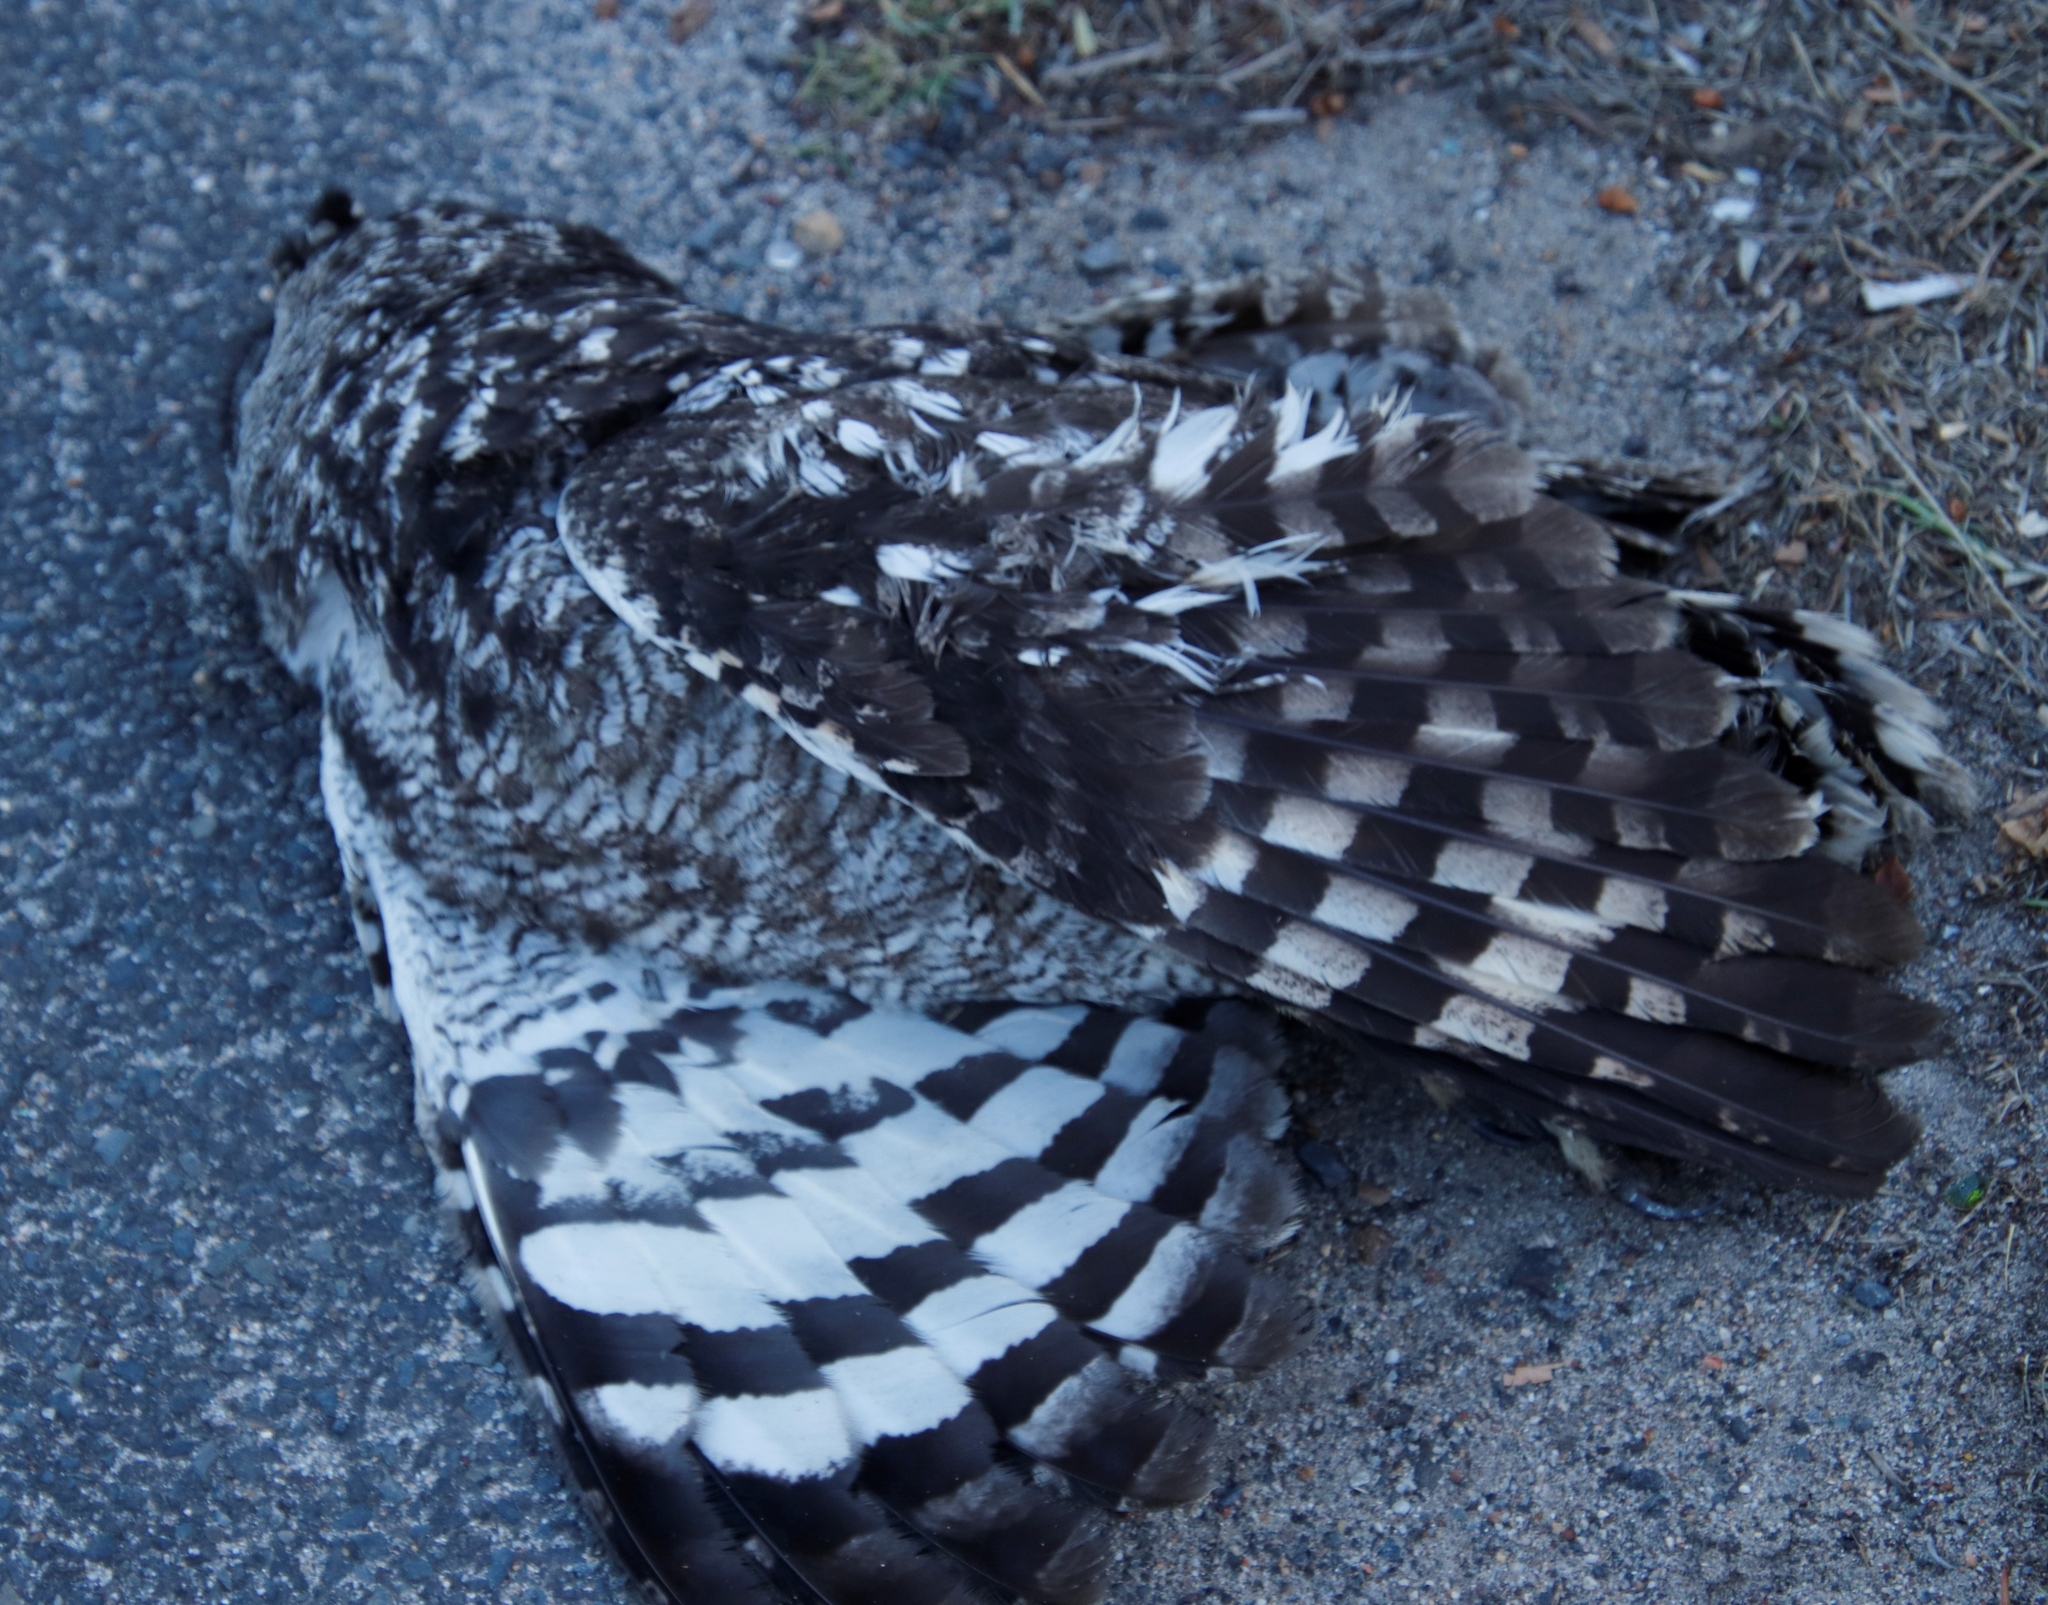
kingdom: Animalia
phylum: Chordata
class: Aves
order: Strigiformes
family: Strigidae
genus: Bubo
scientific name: Bubo africanus
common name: Spotted eagle-owl
